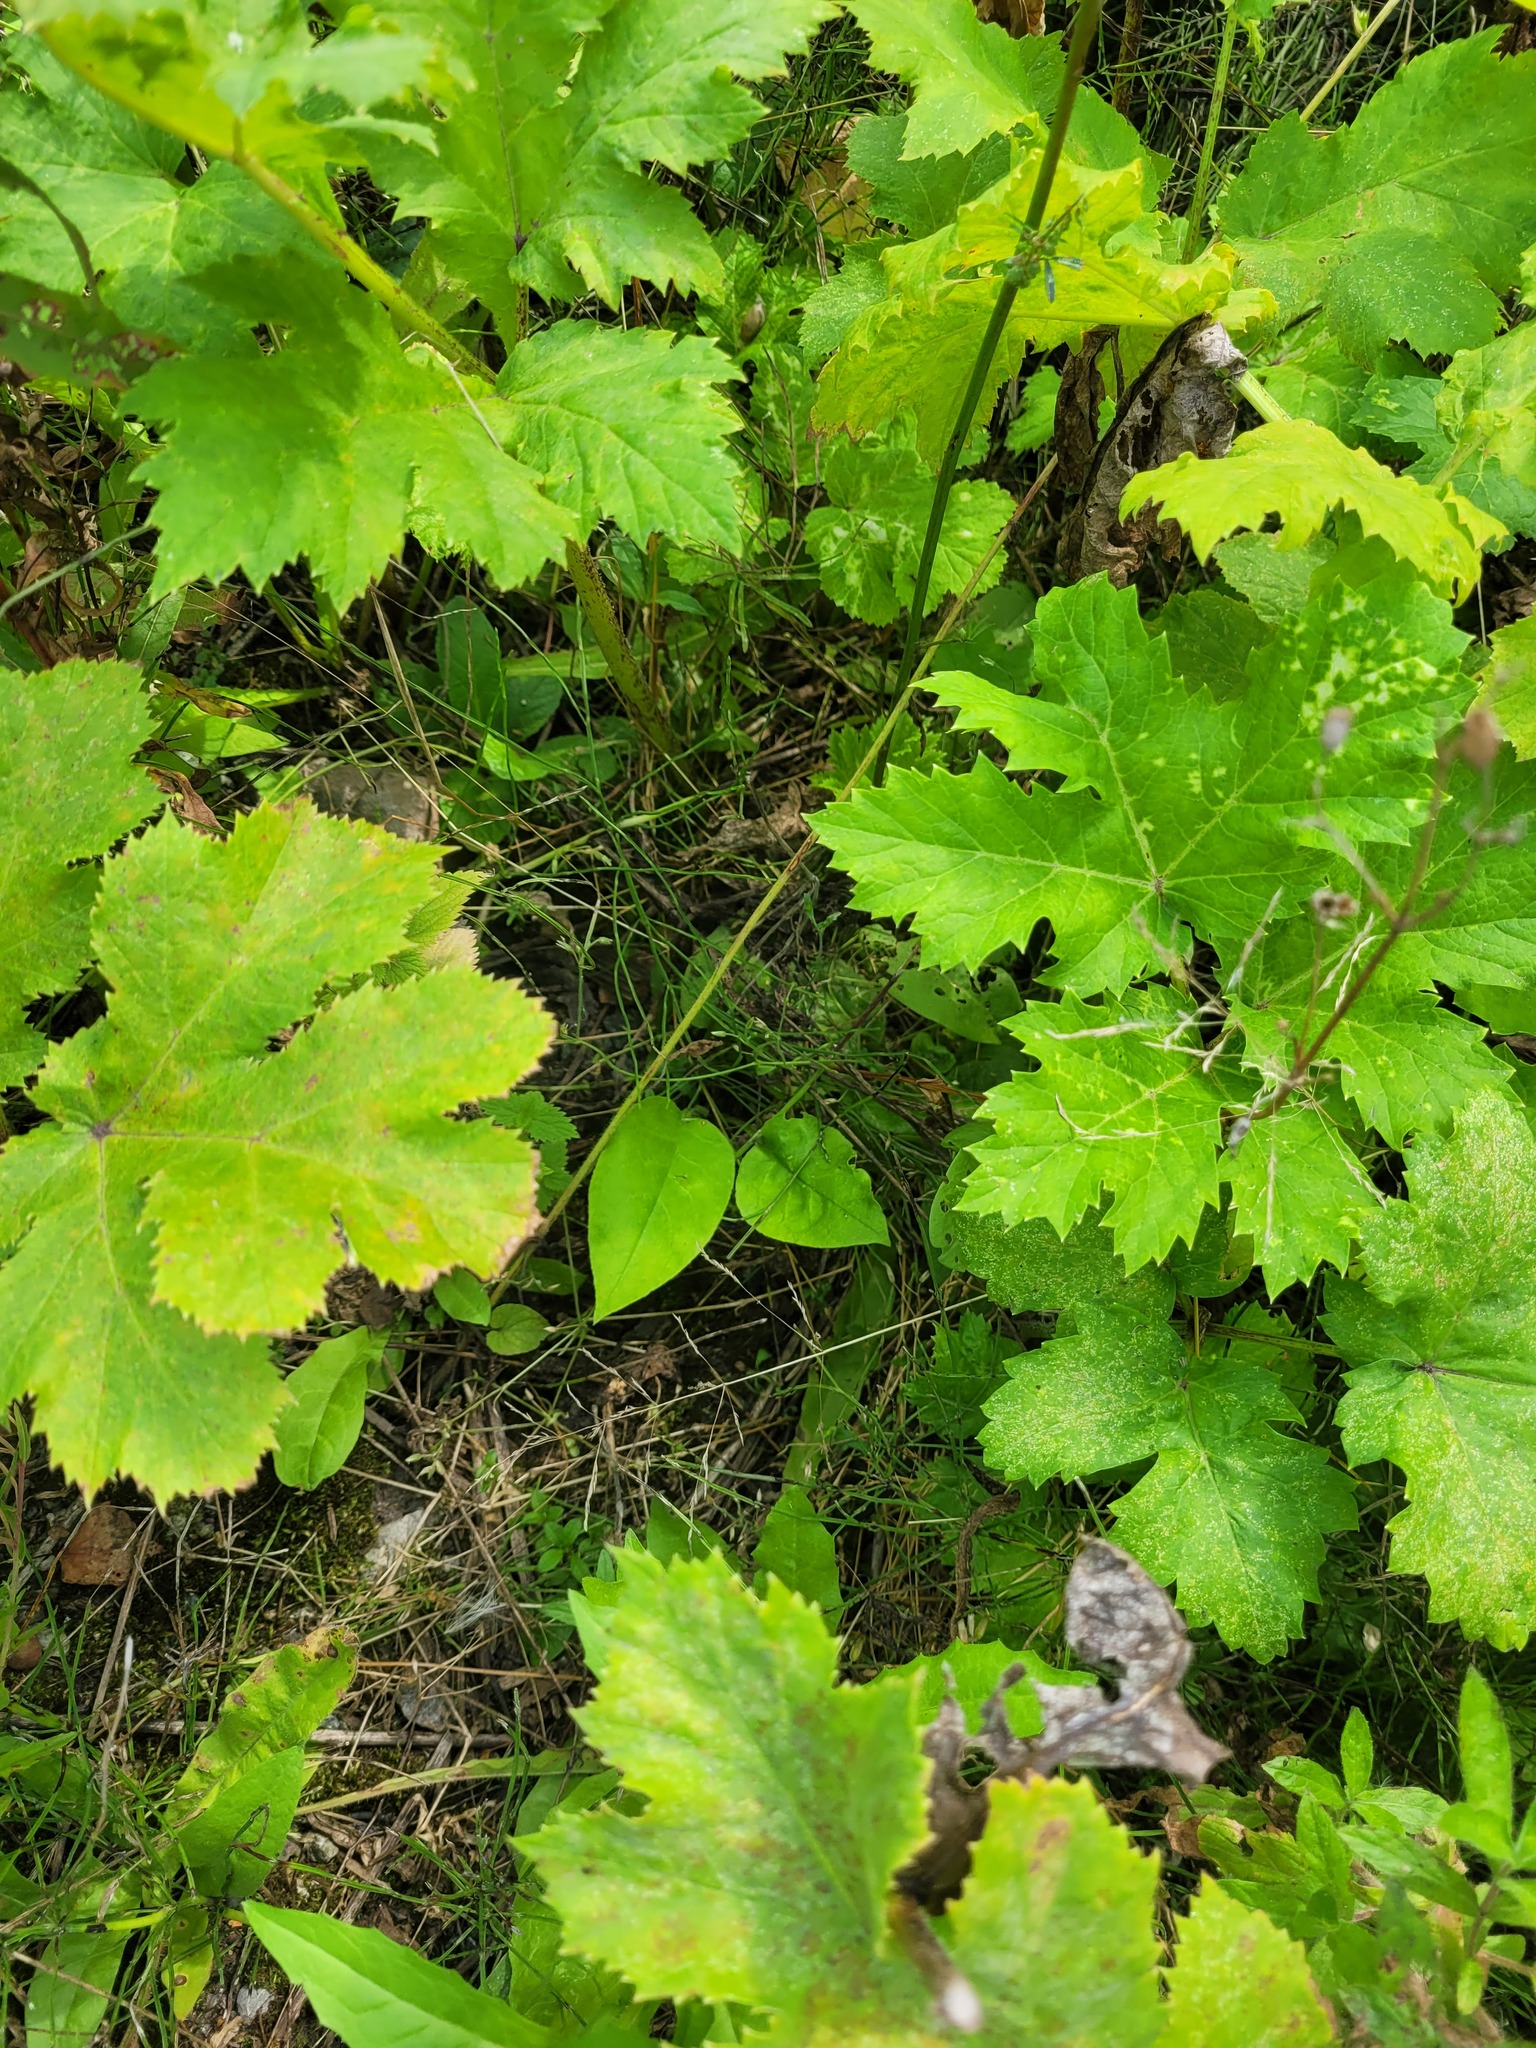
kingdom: Plantae
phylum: Tracheophyta
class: Magnoliopsida
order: Boraginales
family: Boraginaceae
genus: Pulmonaria
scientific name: Pulmonaria obscura
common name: Suffolk lungwort
